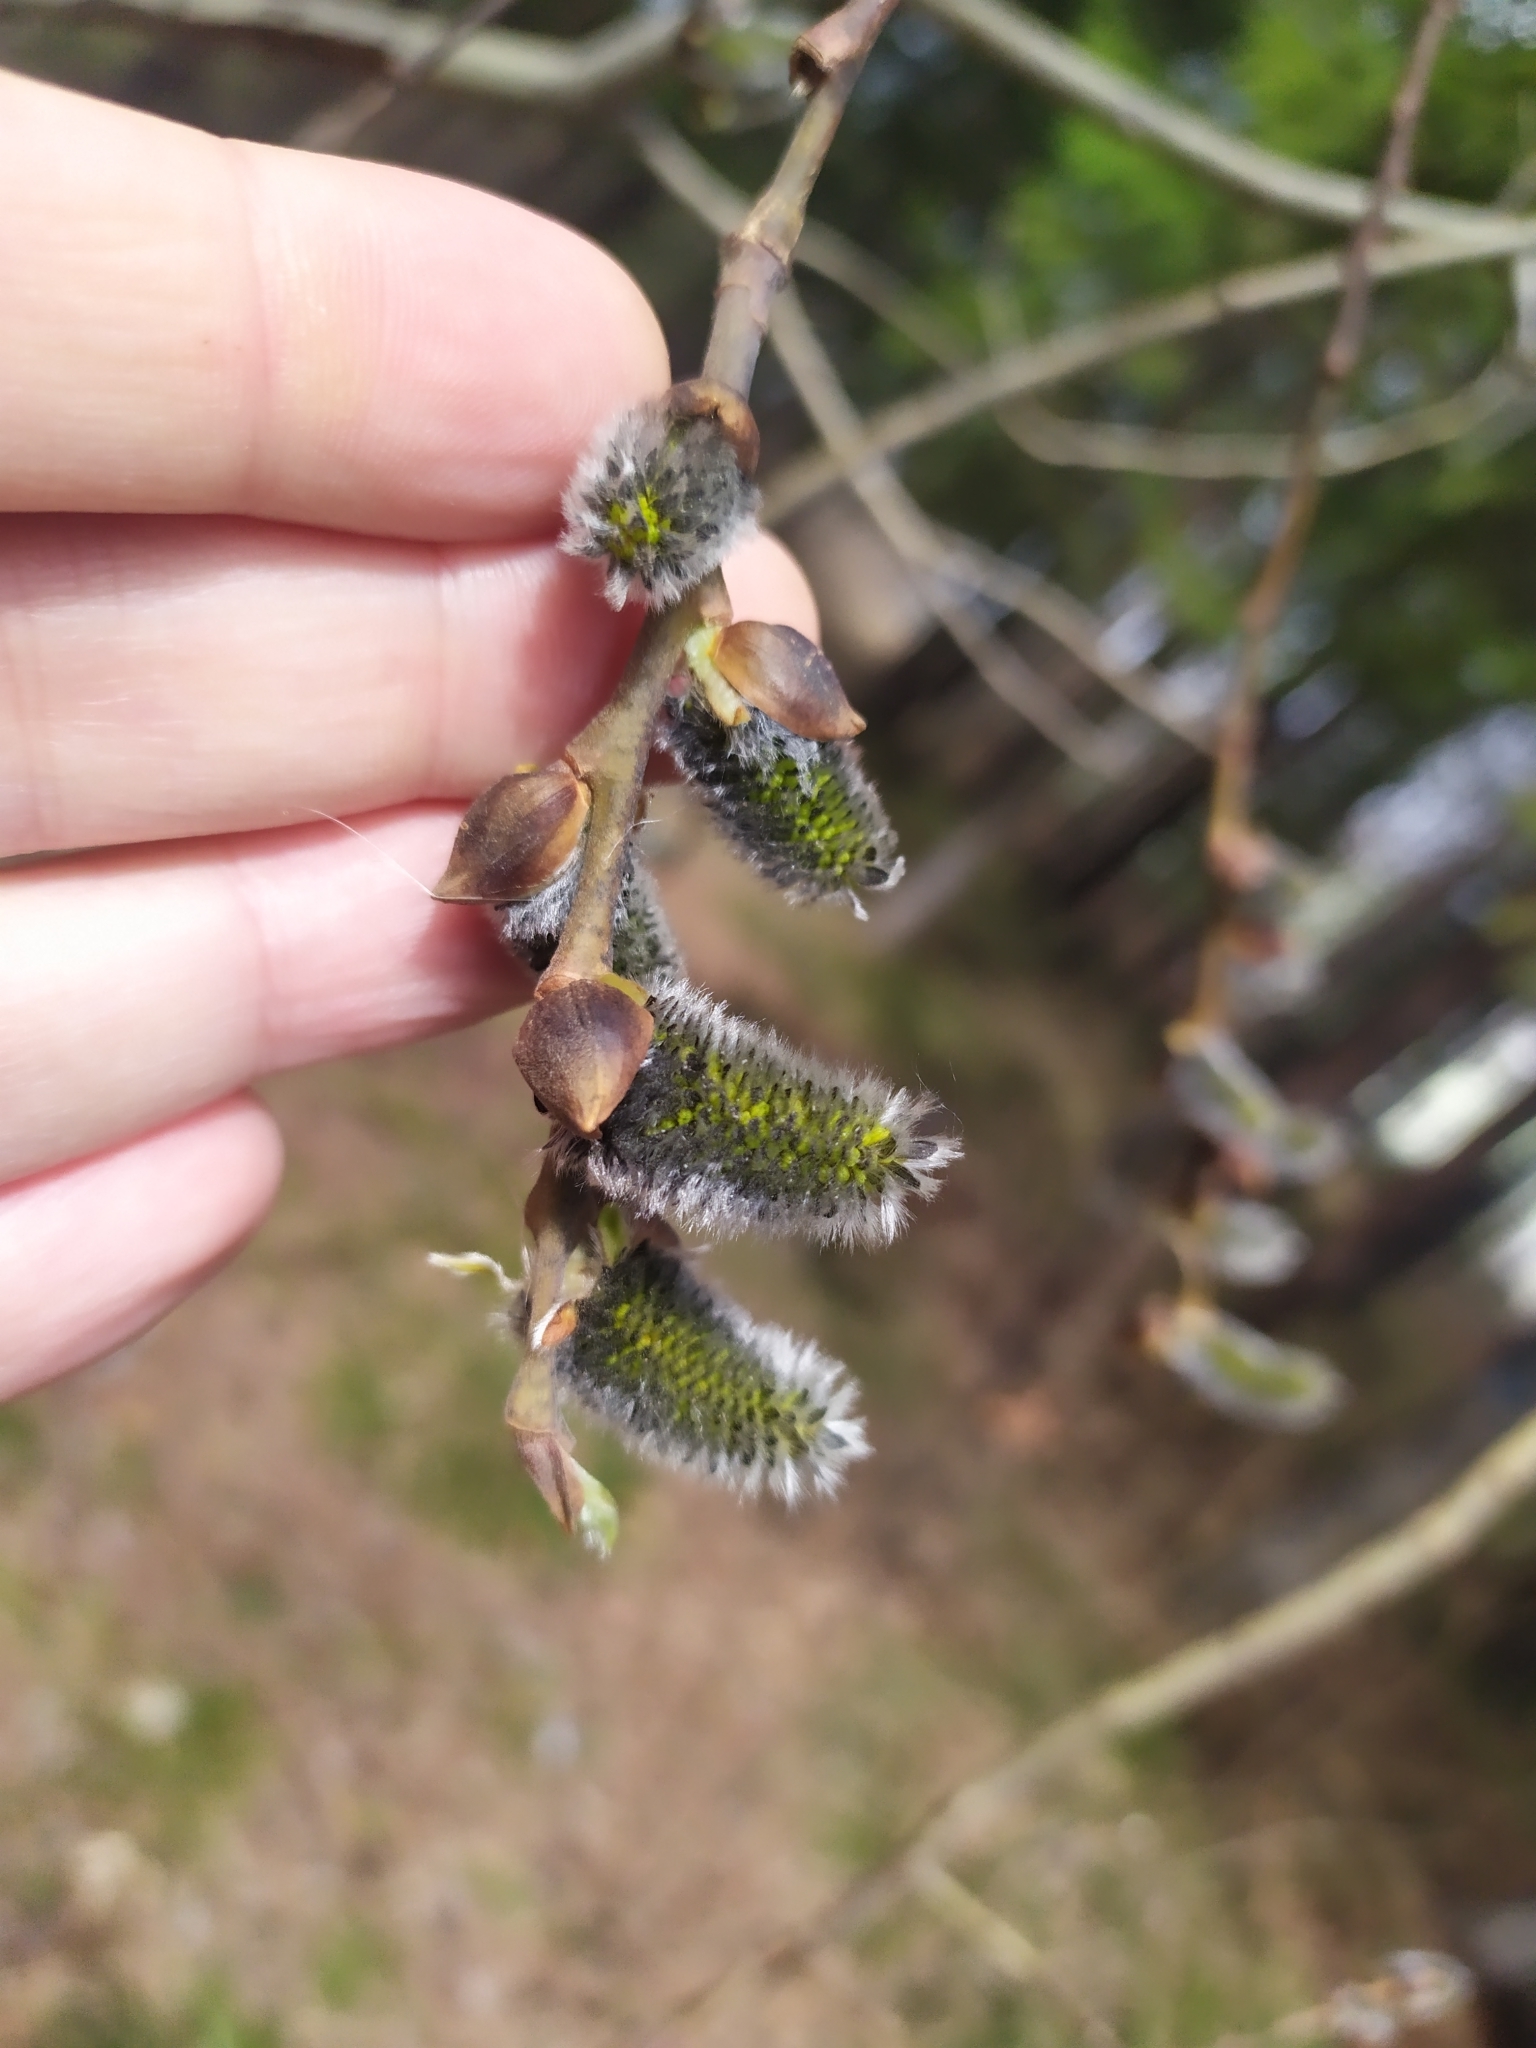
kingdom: Plantae
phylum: Tracheophyta
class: Magnoliopsida
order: Malpighiales
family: Salicaceae
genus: Populus
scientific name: Populus tremula
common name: European aspen
